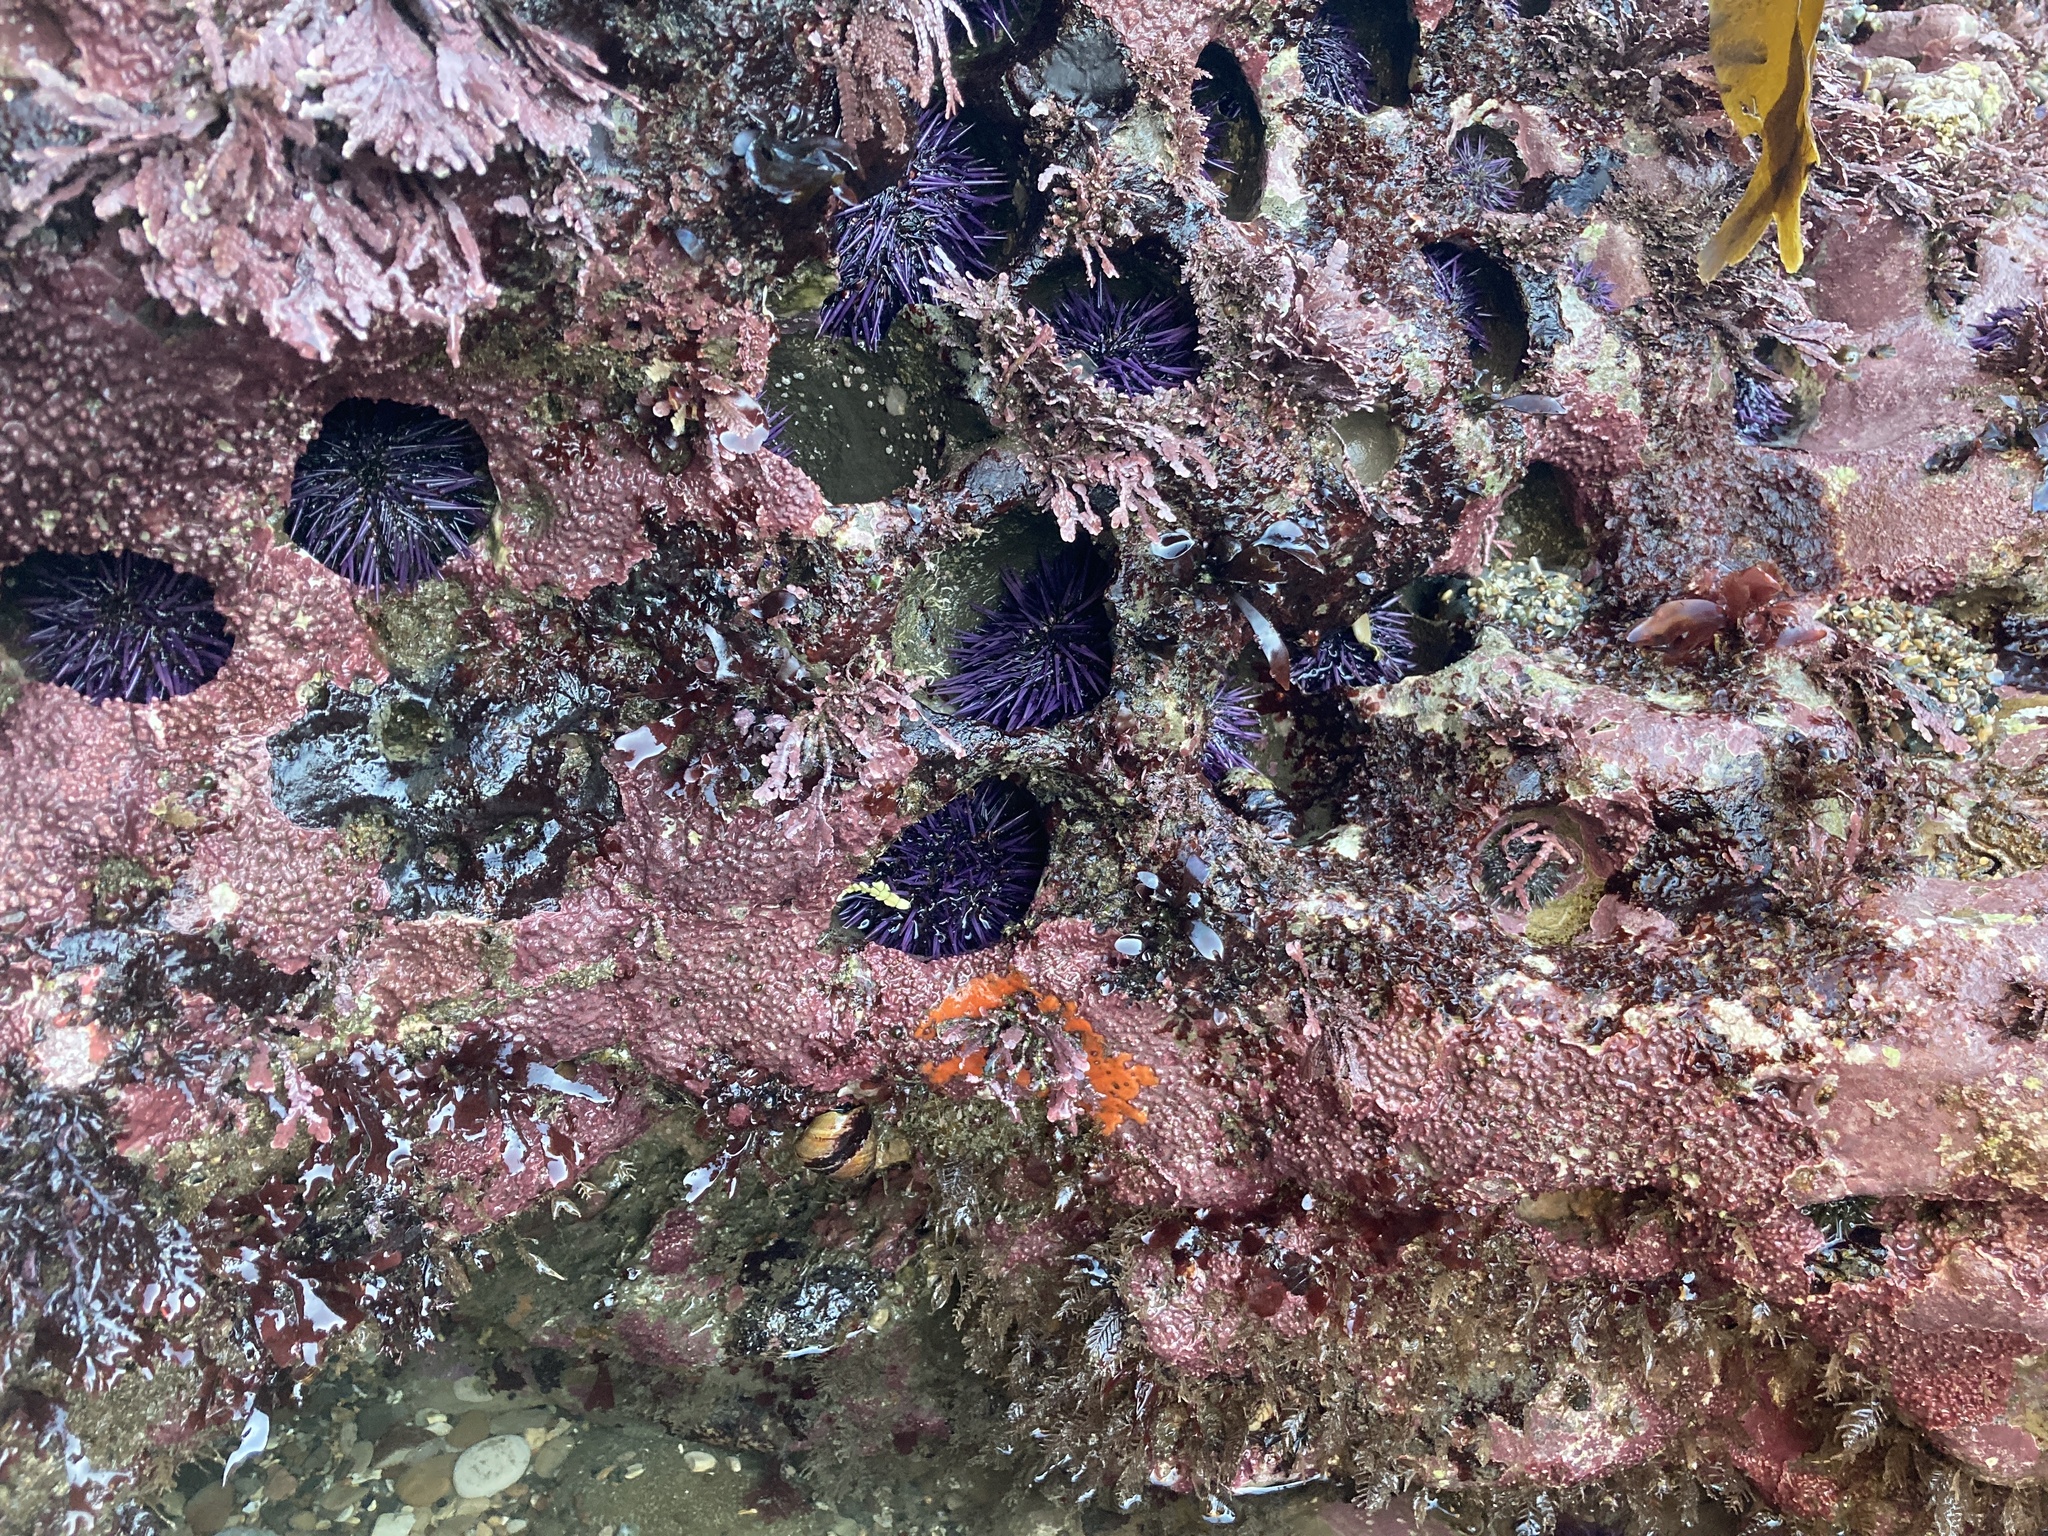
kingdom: Animalia
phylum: Echinodermata
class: Echinoidea
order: Camarodonta
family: Strongylocentrotidae
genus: Strongylocentrotus
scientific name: Strongylocentrotus purpuratus
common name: Purple sea urchin
